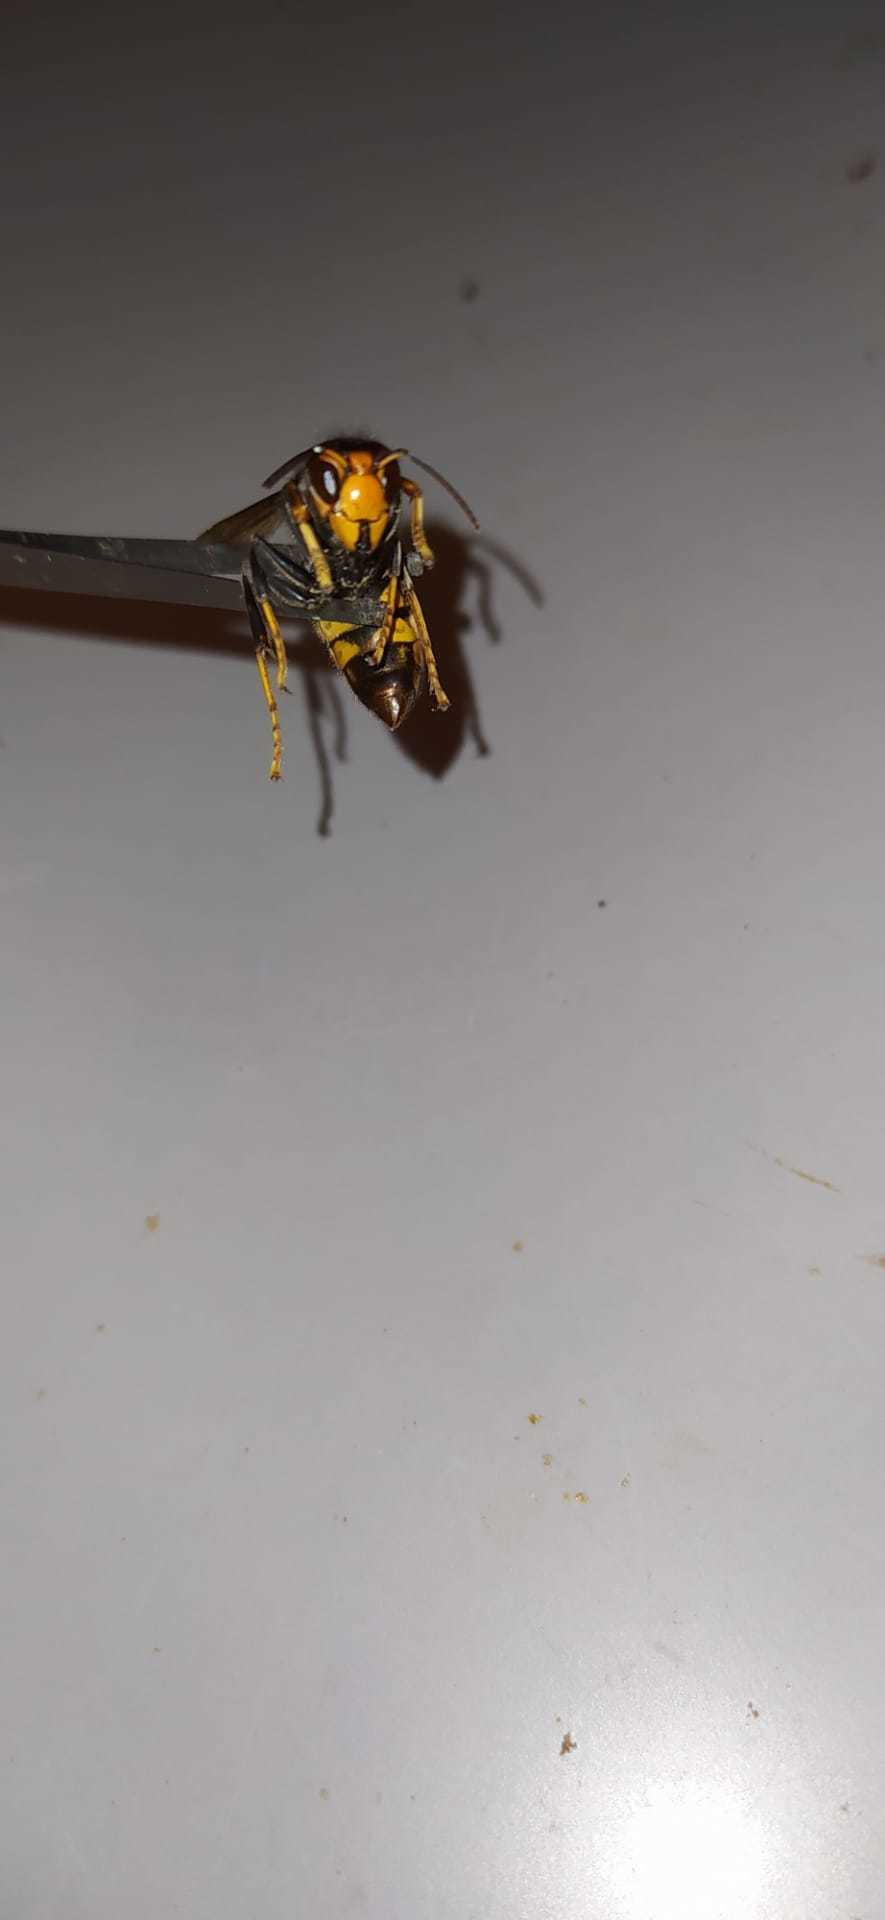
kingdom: Animalia
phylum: Arthropoda
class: Insecta
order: Hymenoptera
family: Vespidae
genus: Vespa
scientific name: Vespa velutina
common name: Asian hornet
